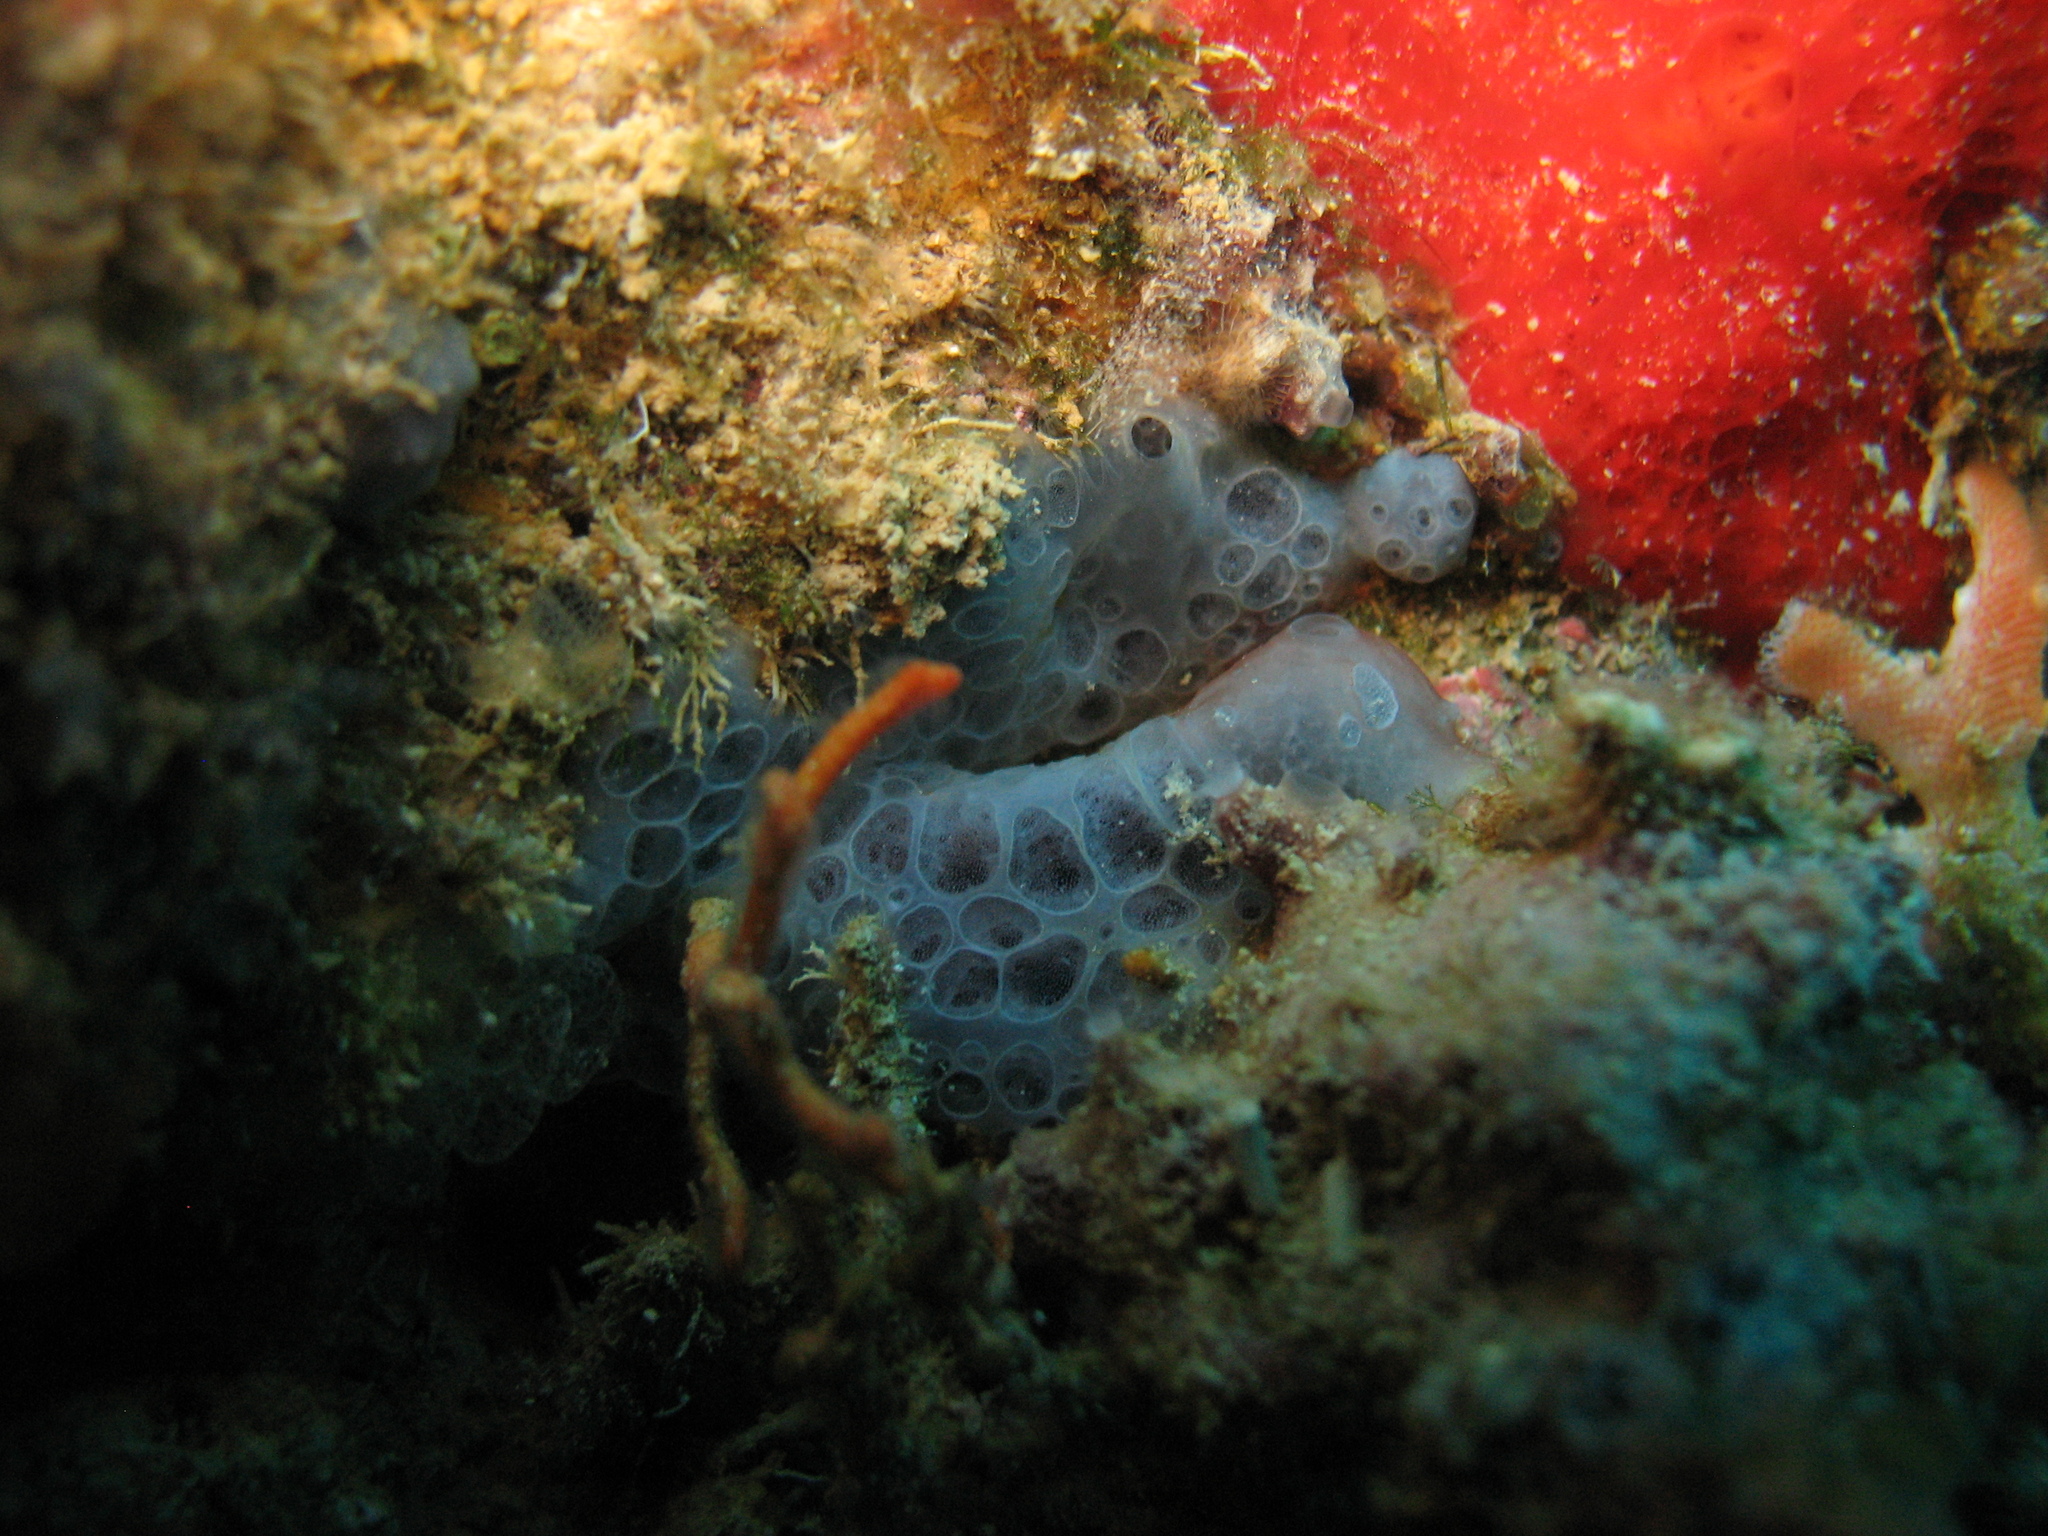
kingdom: Animalia
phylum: Porifera
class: Demospongiae
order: Poecilosclerida
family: Hymedesmiidae
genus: Phorbas
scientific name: Phorbas tenacior
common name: Bluish encrusting sponge
